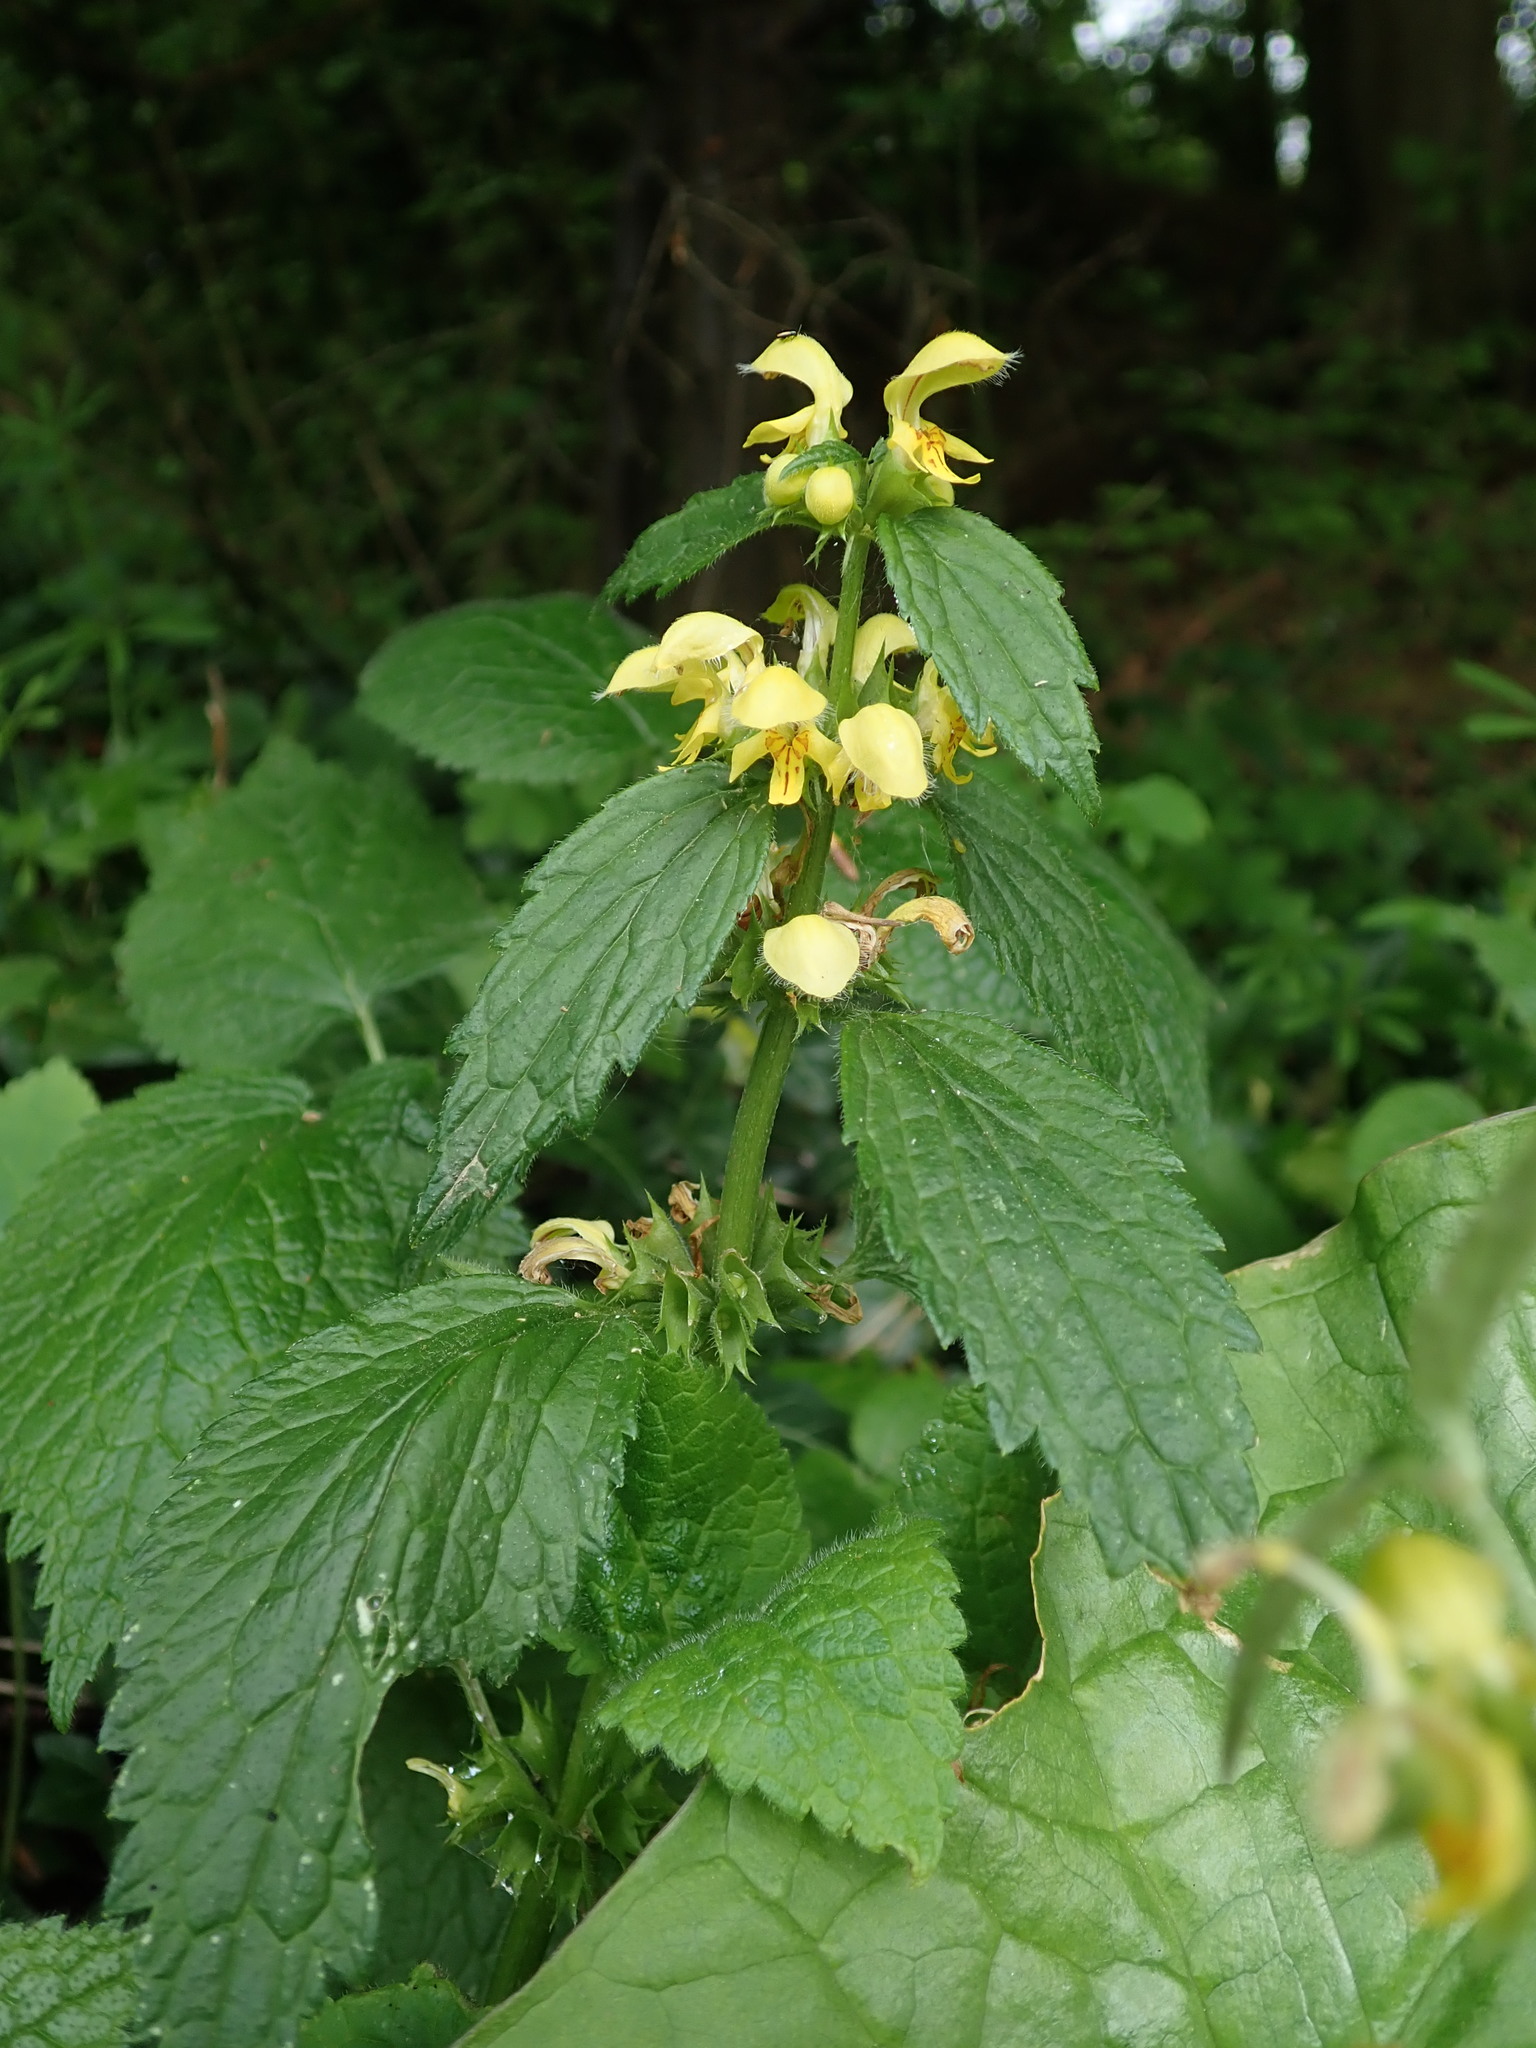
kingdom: Plantae
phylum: Tracheophyta
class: Magnoliopsida
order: Lamiales
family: Lamiaceae
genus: Lamium
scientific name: Lamium galeobdolon
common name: Yellow archangel
